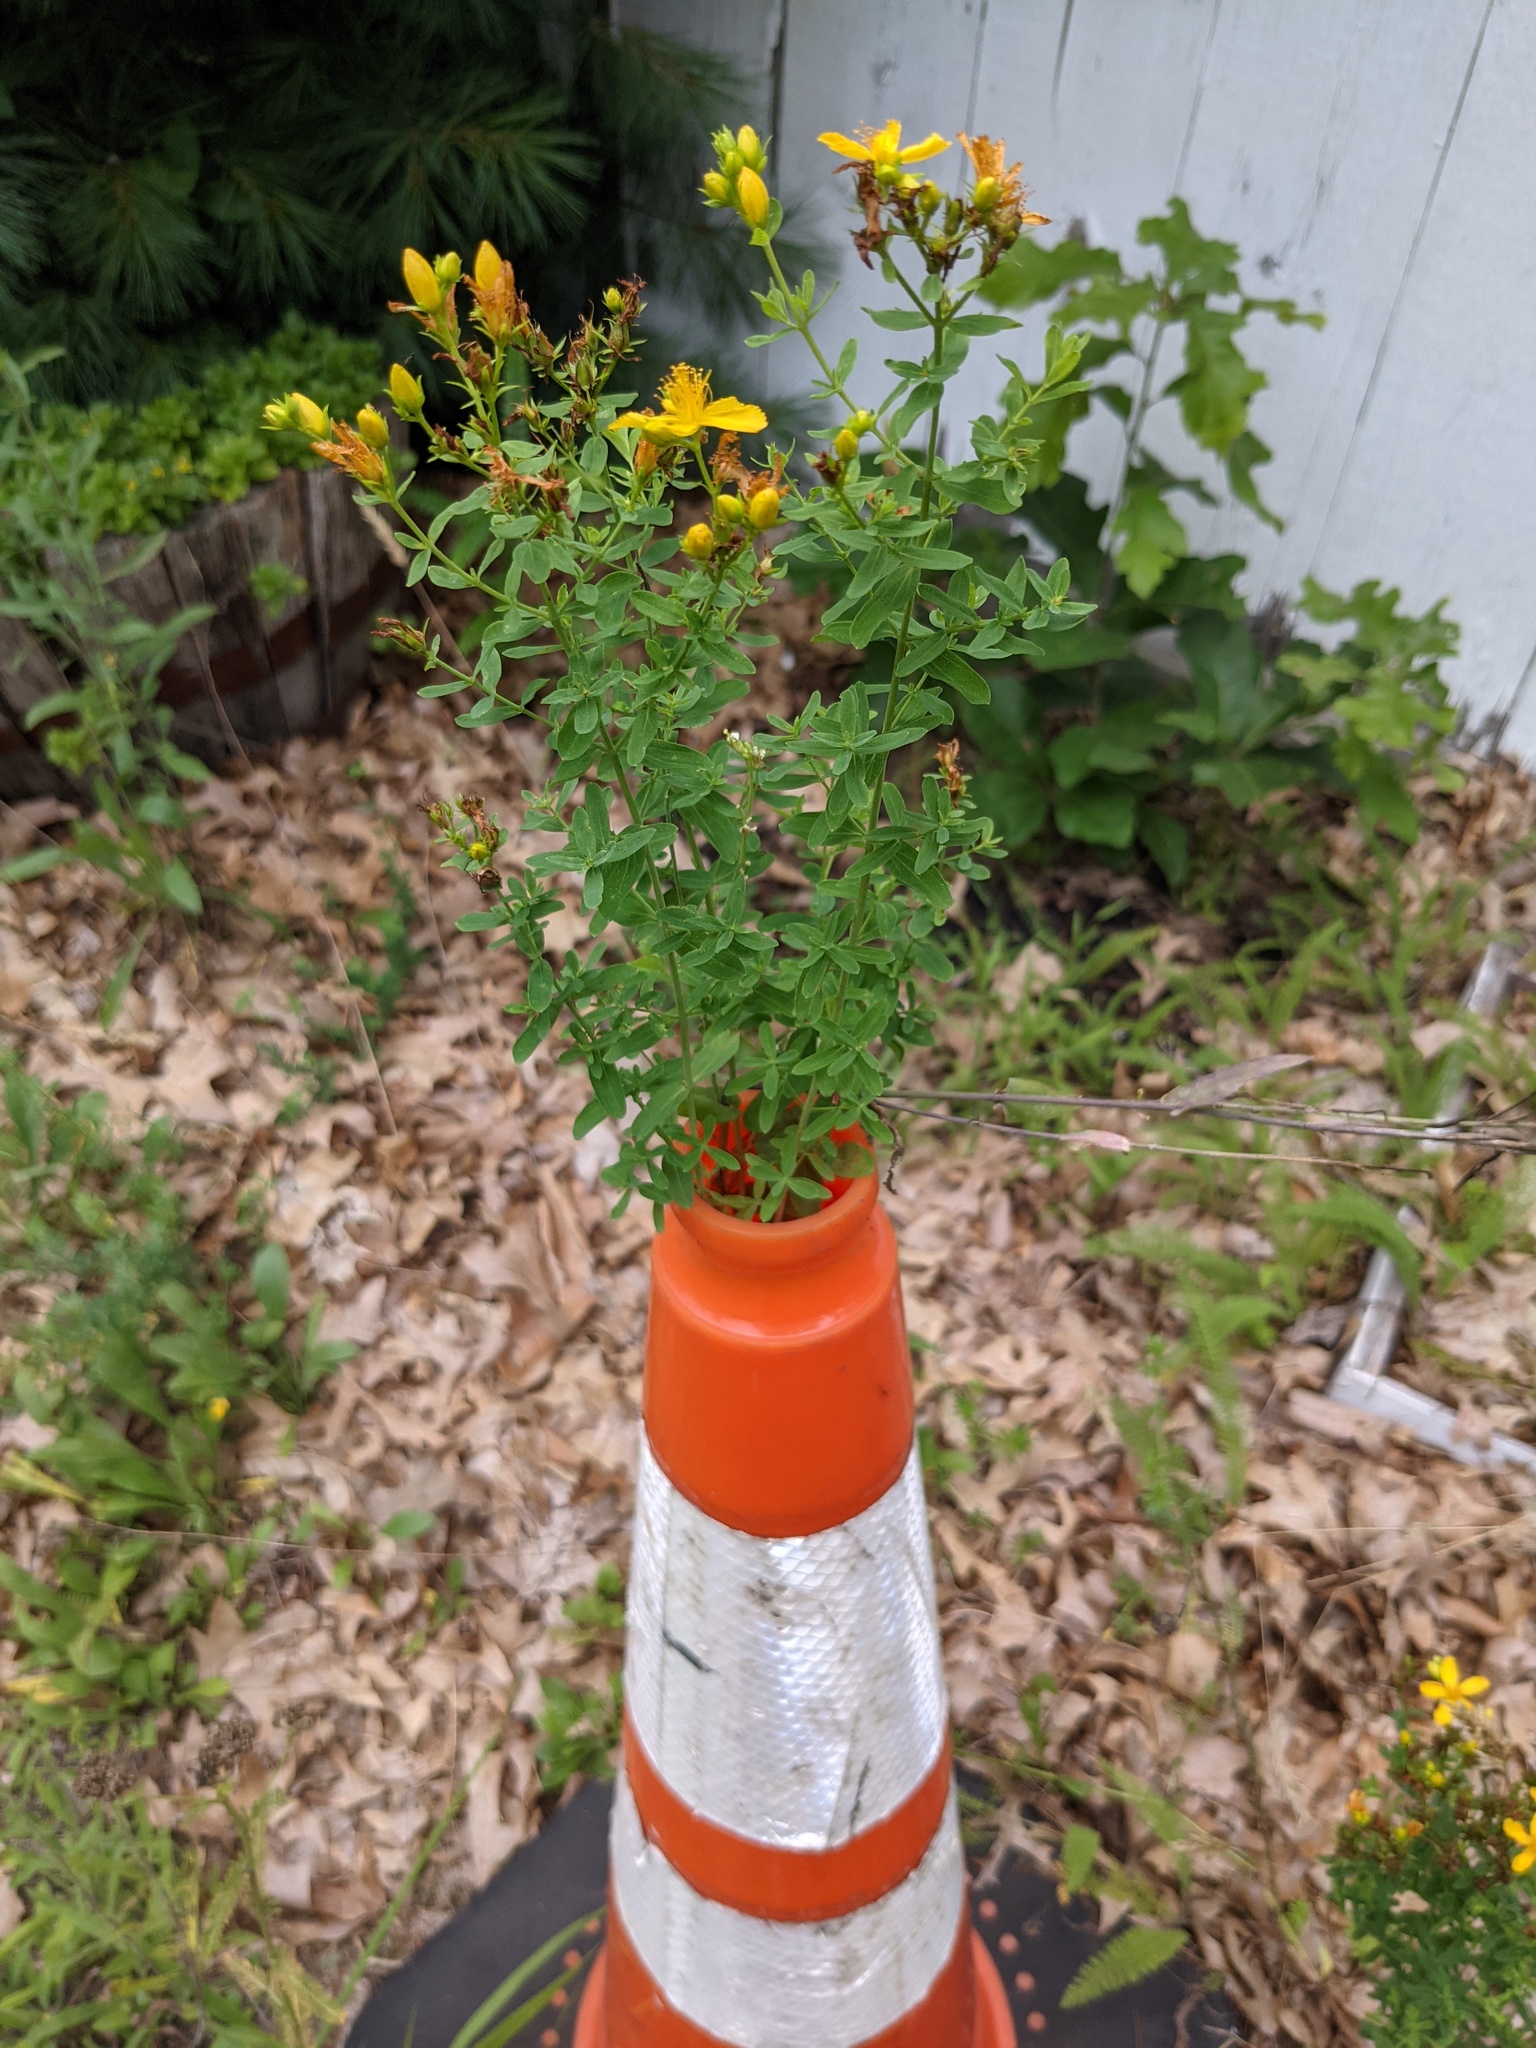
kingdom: Plantae
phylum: Tracheophyta
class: Magnoliopsida
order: Malpighiales
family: Hypericaceae
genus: Hypericum
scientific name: Hypericum perforatum
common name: Common st. johnswort
